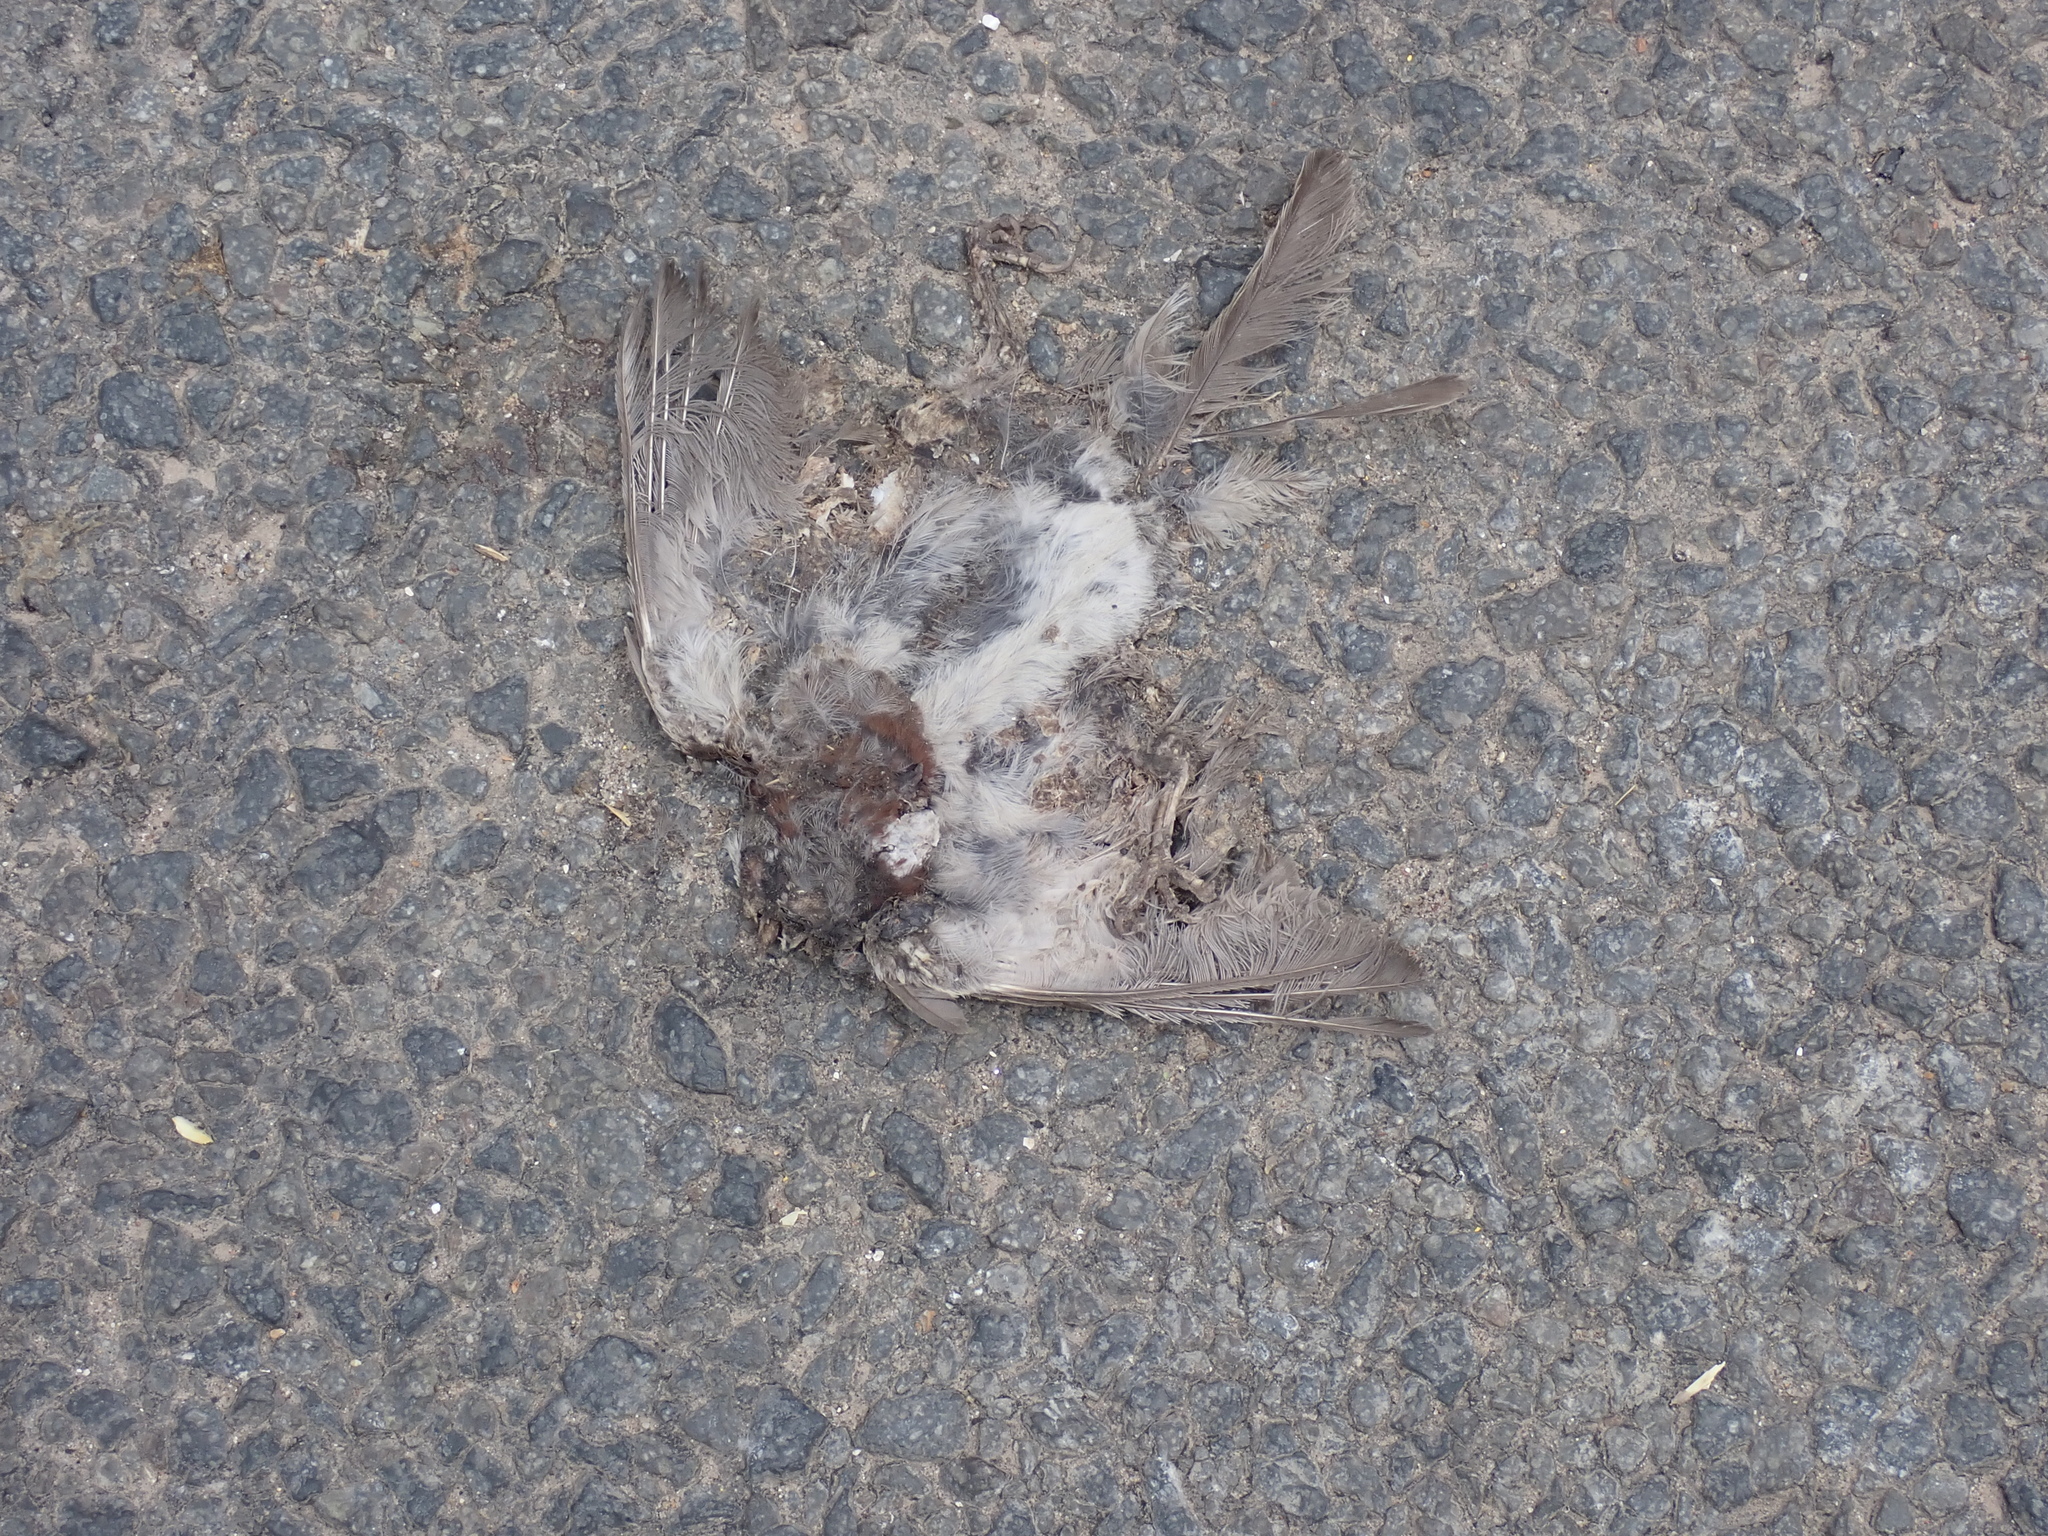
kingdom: Animalia
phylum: Chordata
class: Aves
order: Passeriformes
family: Passeridae
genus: Passer
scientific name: Passer domesticus
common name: House sparrow
